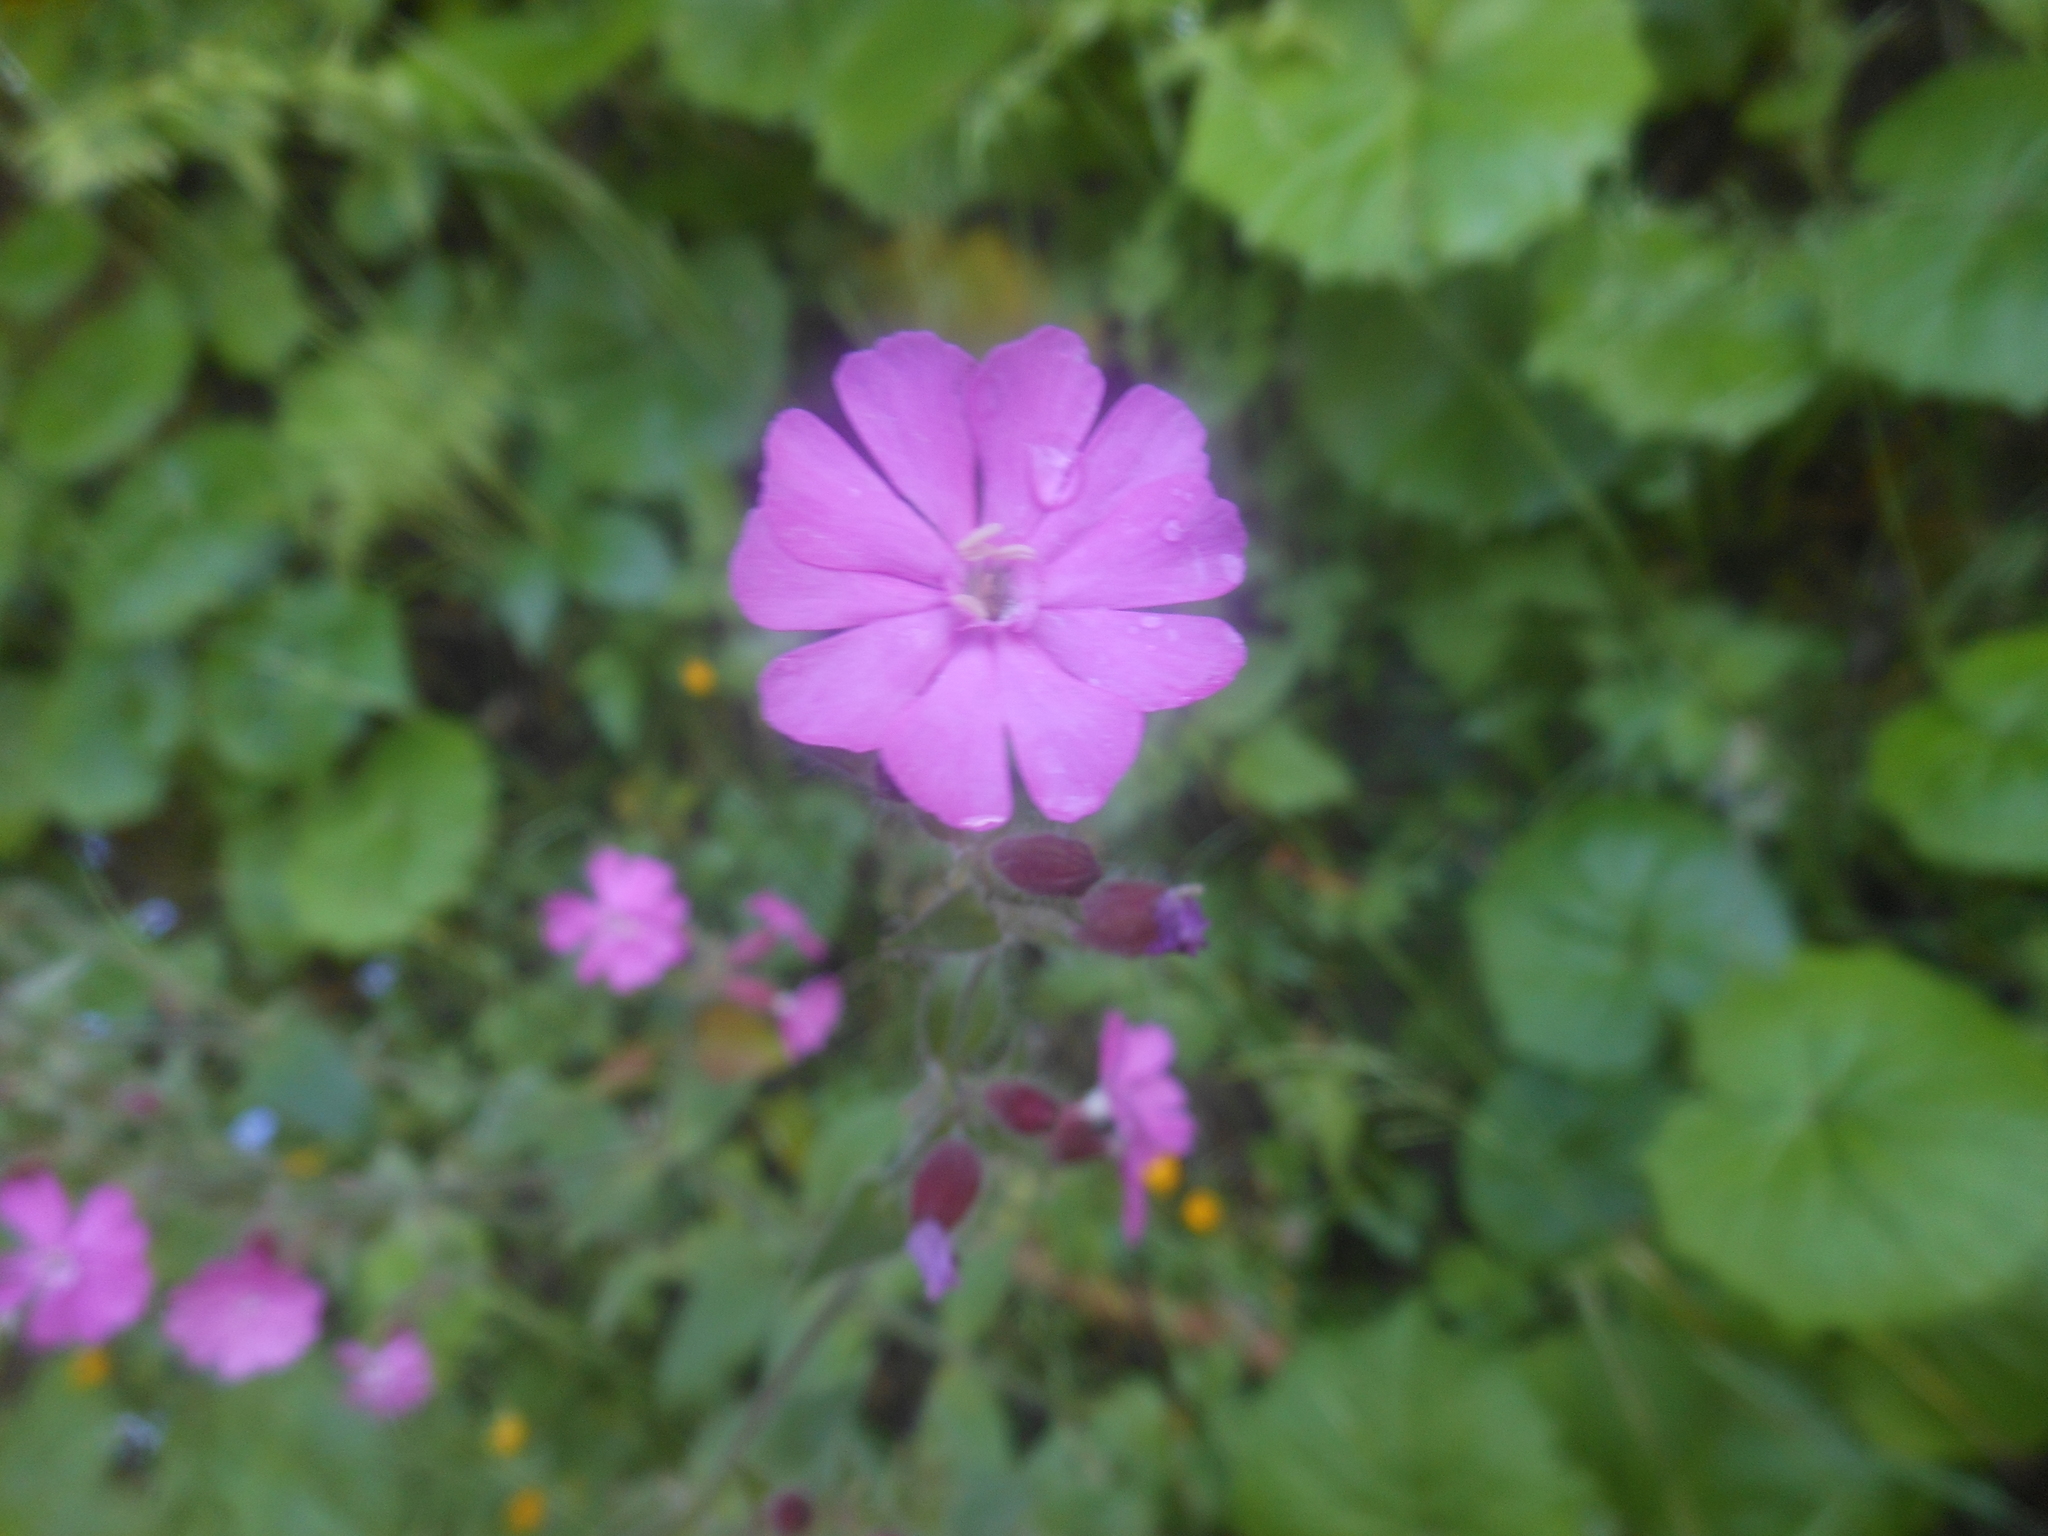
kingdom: Plantae
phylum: Tracheophyta
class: Magnoliopsida
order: Caryophyllales
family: Caryophyllaceae
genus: Silene
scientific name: Silene dioica
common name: Red campion
